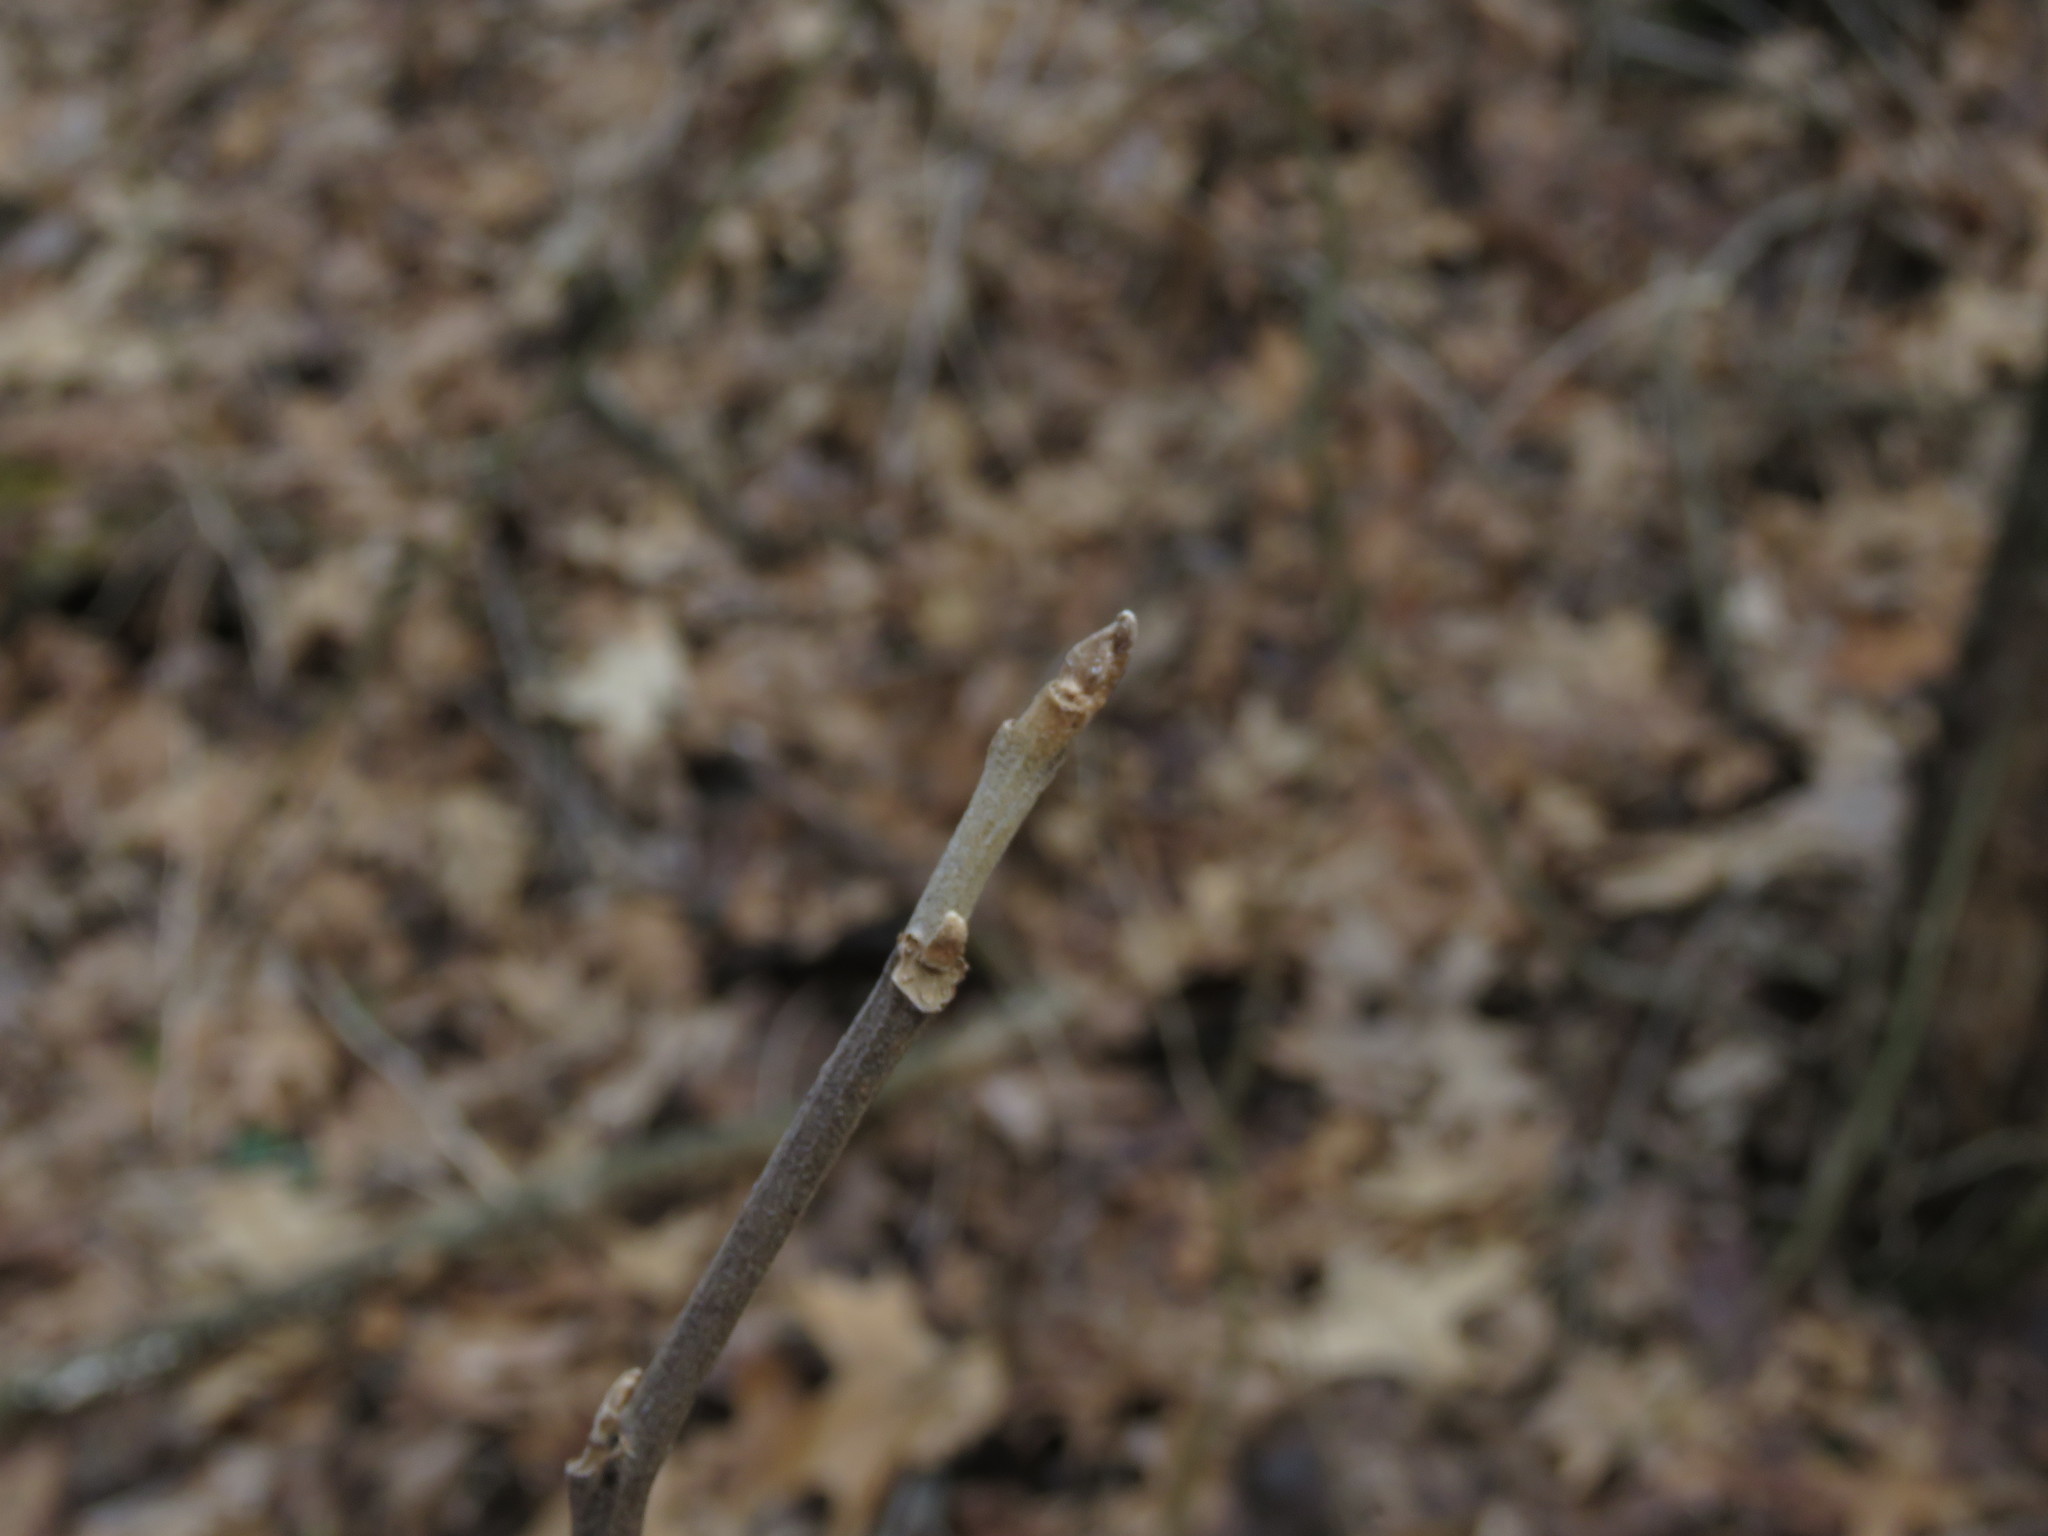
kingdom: Plantae
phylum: Tracheophyta
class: Magnoliopsida
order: Sapindales
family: Anacardiaceae
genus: Toxicodendron
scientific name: Toxicodendron radicans
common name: Poison ivy
